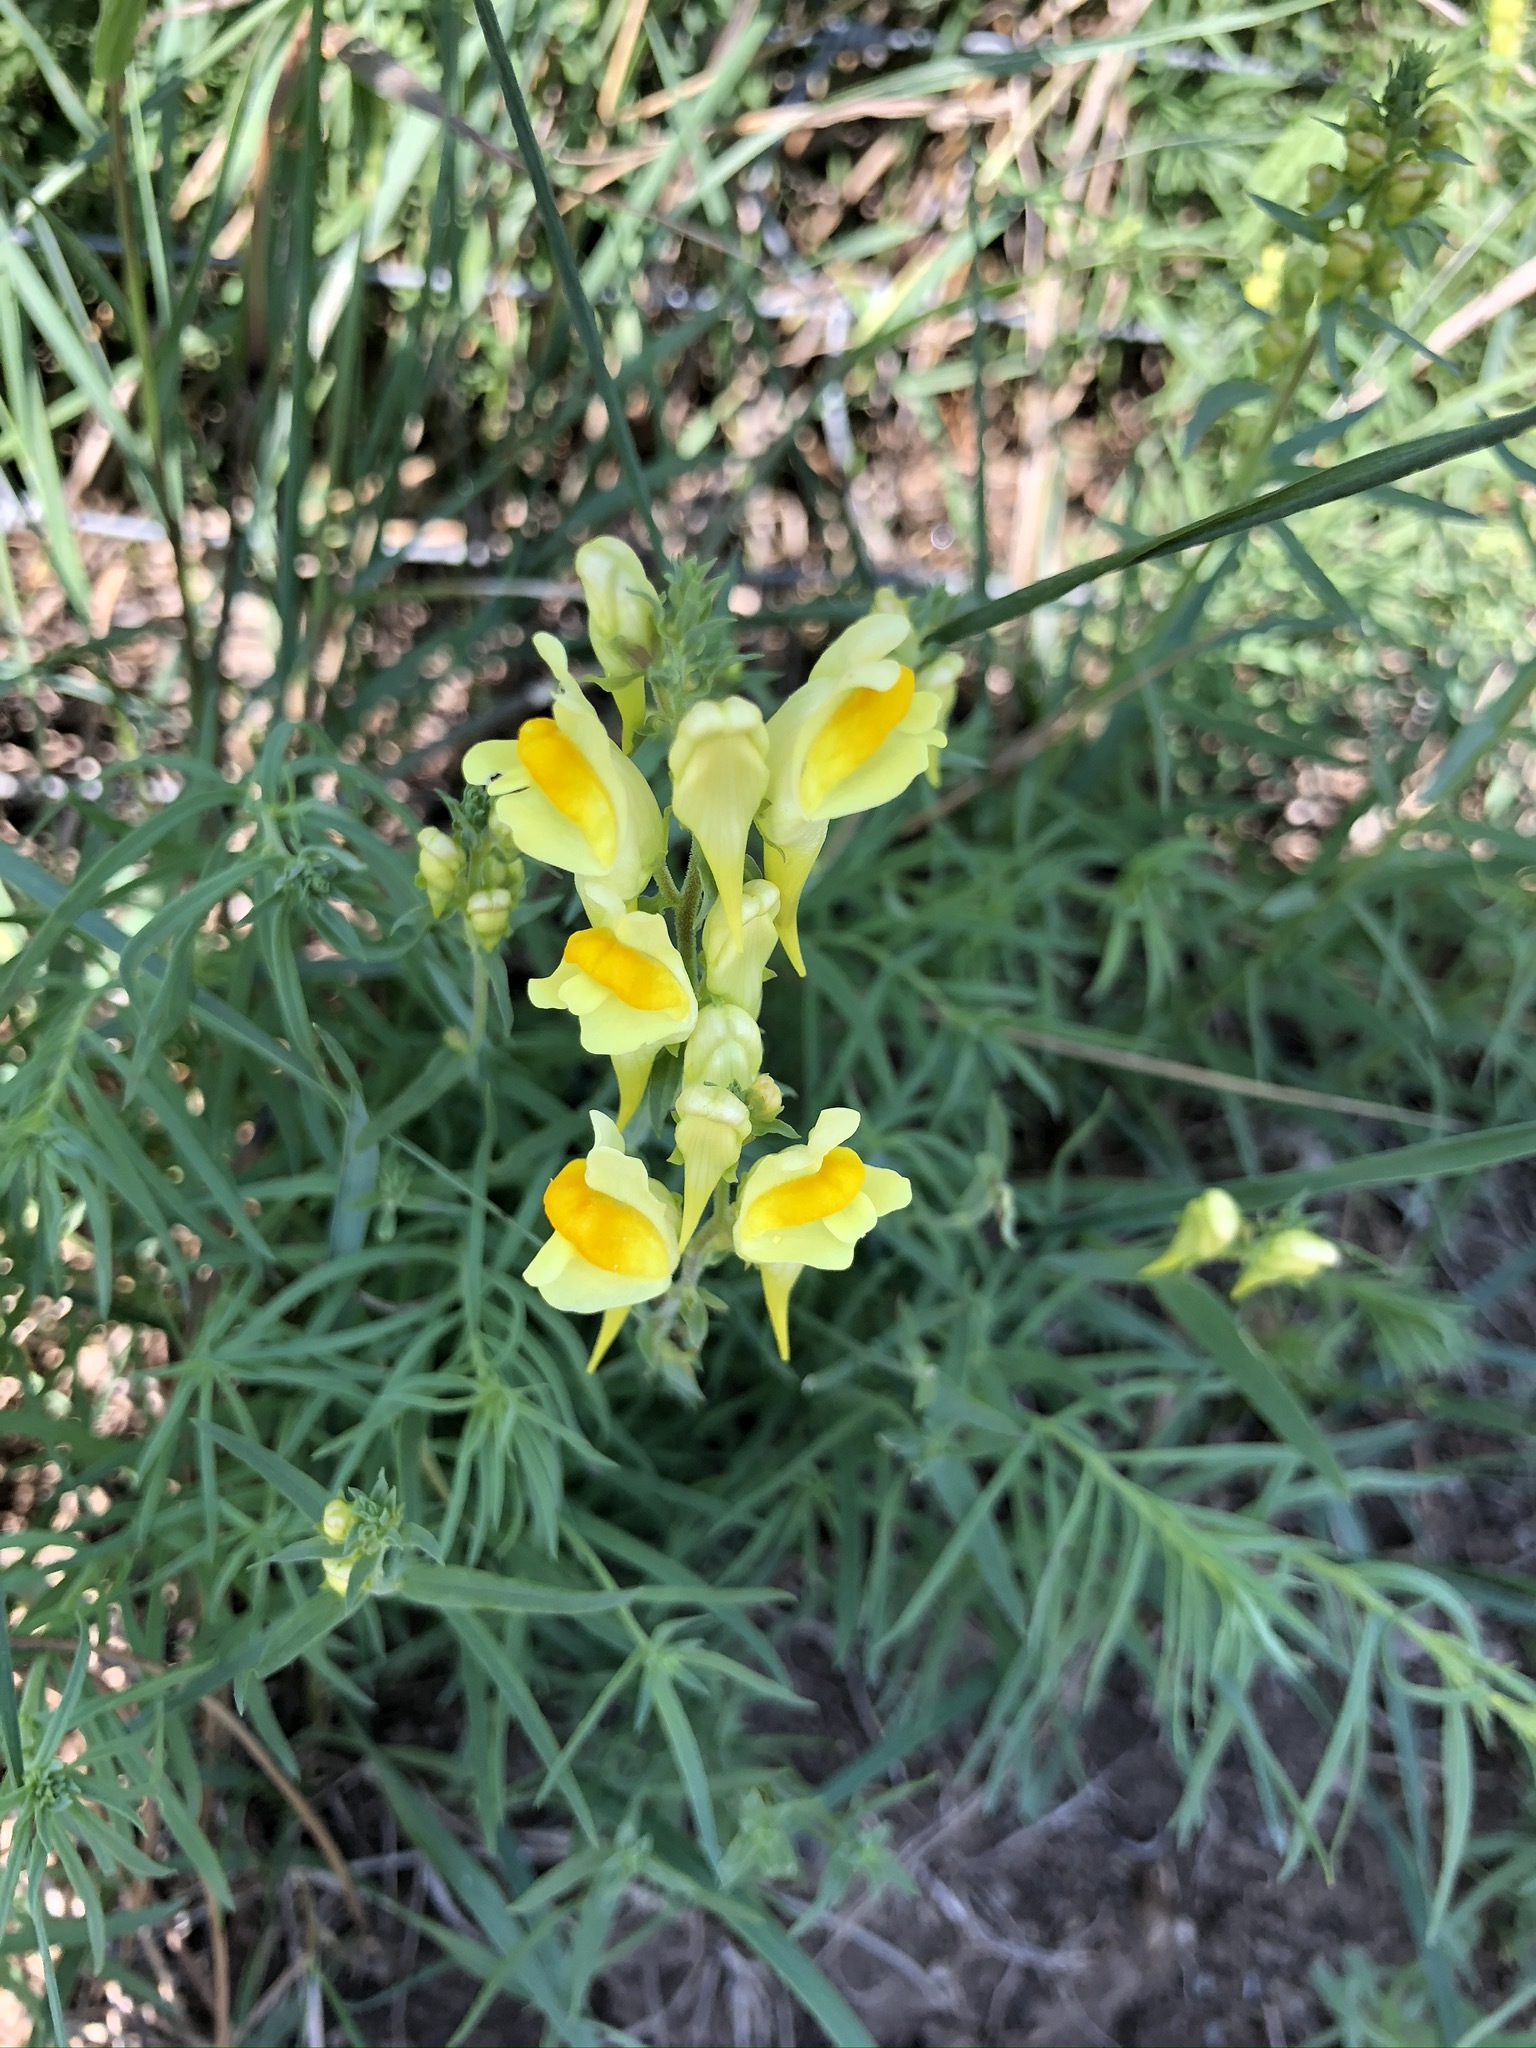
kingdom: Plantae
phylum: Tracheophyta
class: Magnoliopsida
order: Lamiales
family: Plantaginaceae
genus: Linaria
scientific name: Linaria vulgaris
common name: Butter and eggs
